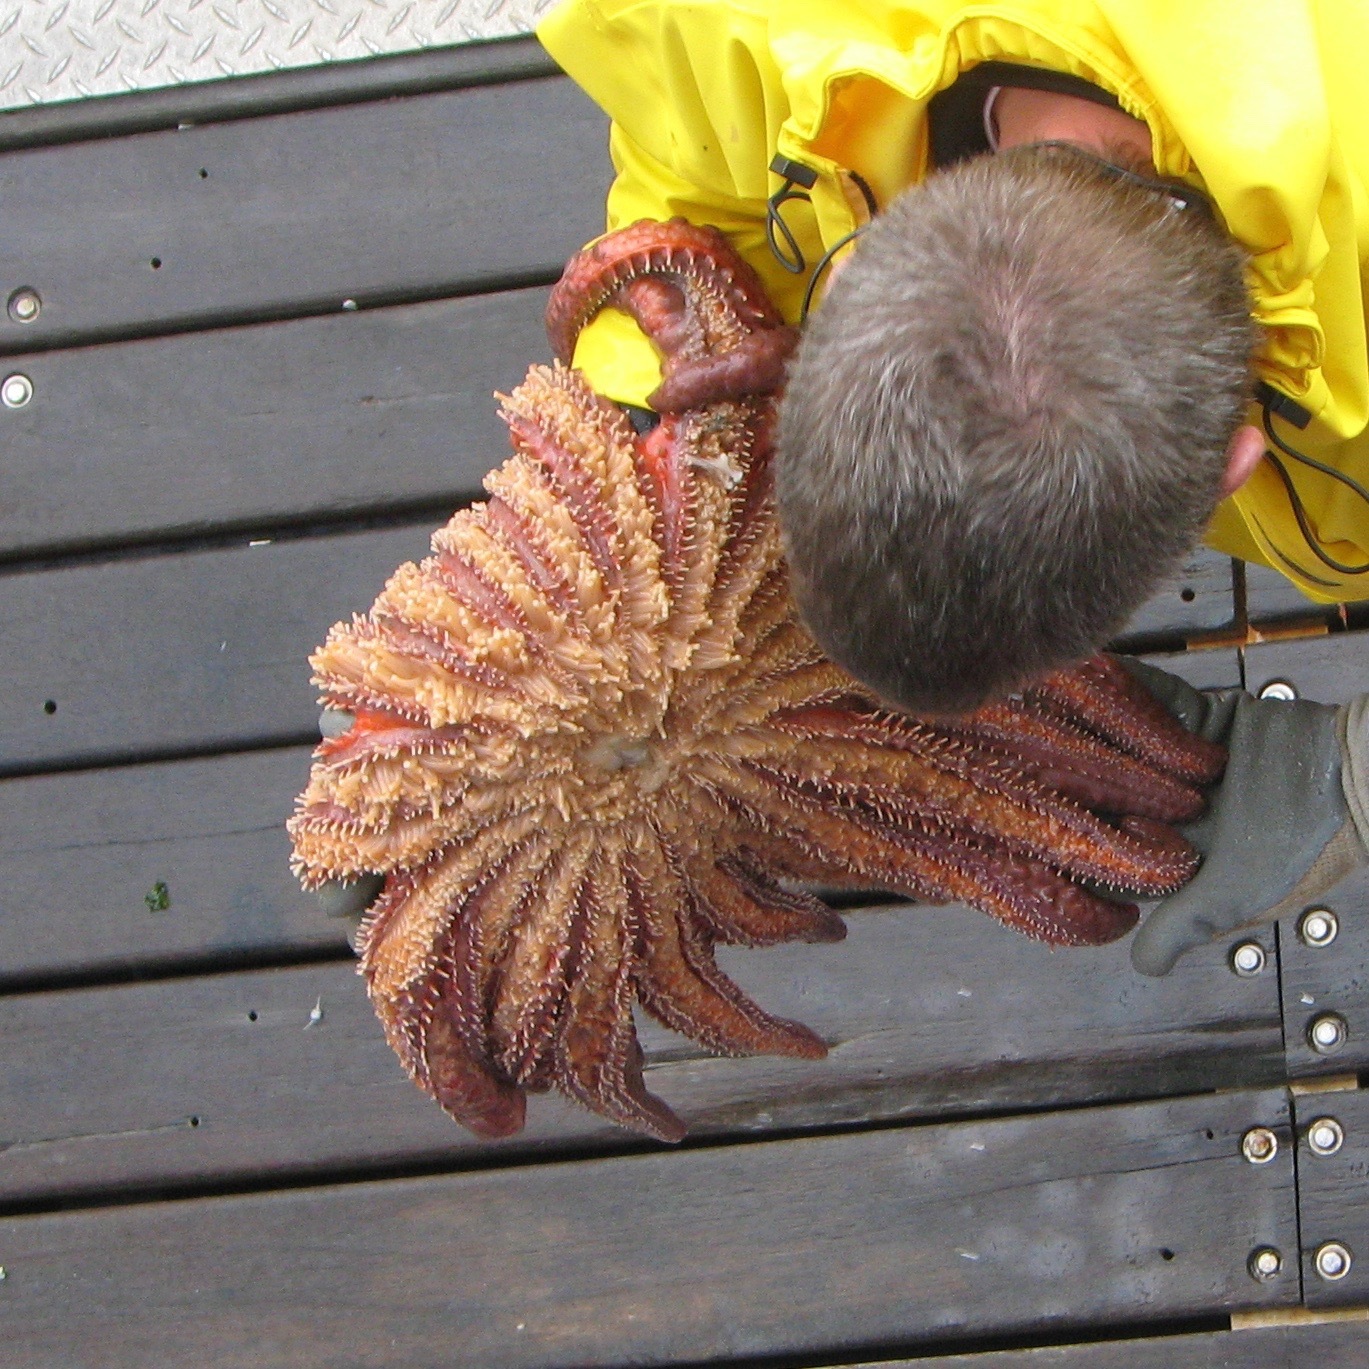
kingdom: Animalia
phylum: Echinodermata
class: Asteroidea
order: Forcipulatida
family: Asteriidae
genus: Pycnopodia
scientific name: Pycnopodia helianthoides
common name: Rag mop
